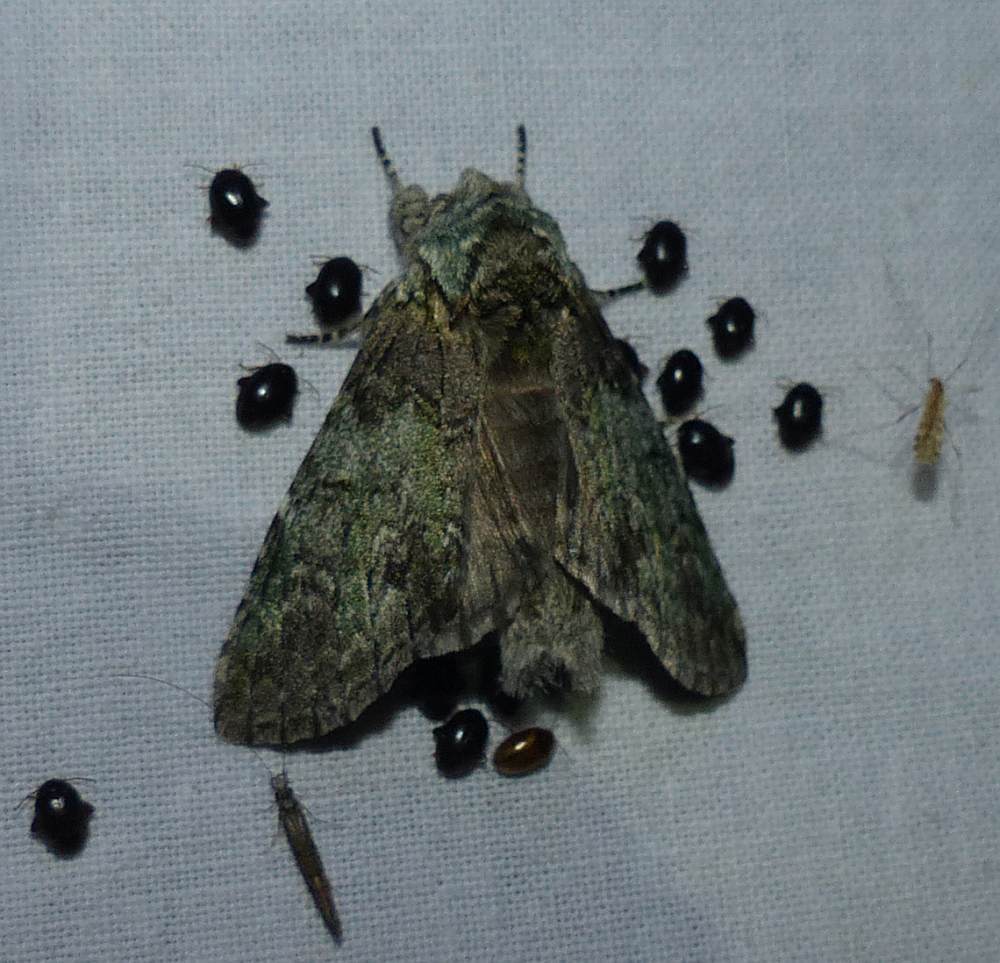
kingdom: Animalia
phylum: Arthropoda
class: Insecta
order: Lepidoptera
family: Notodontidae
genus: Macrurocampa
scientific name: Macrurocampa marthesia
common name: Mottled prominent
